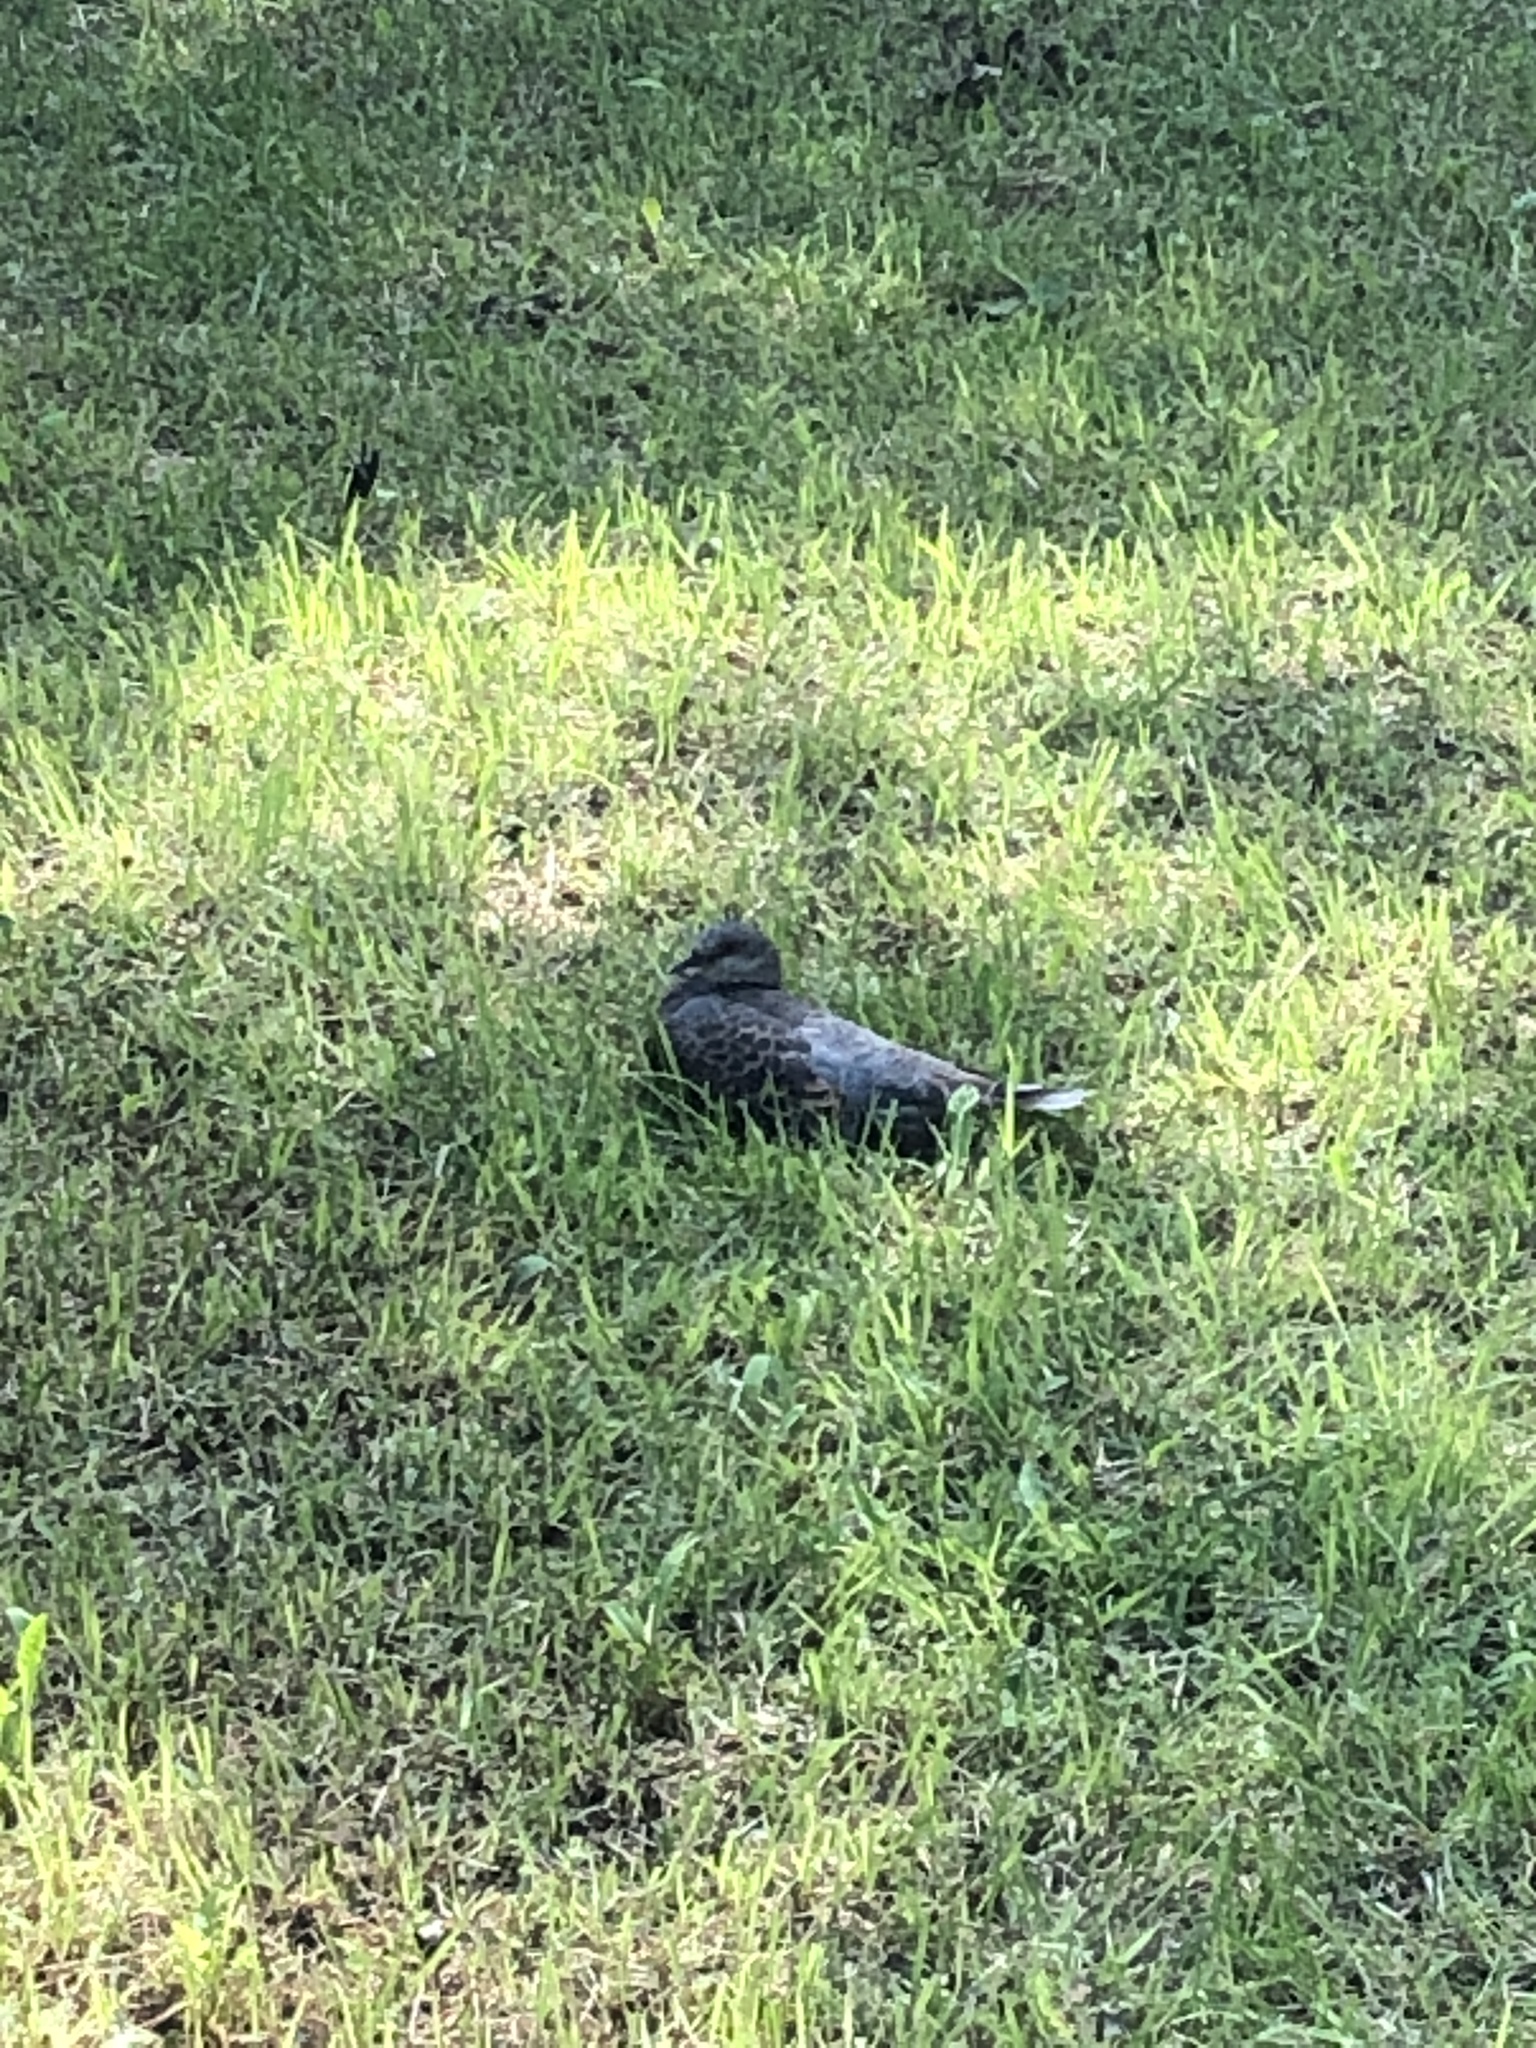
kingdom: Animalia
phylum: Chordata
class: Aves
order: Columbiformes
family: Columbidae
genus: Streptopelia
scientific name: Streptopelia orientalis
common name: Oriental turtle dove
